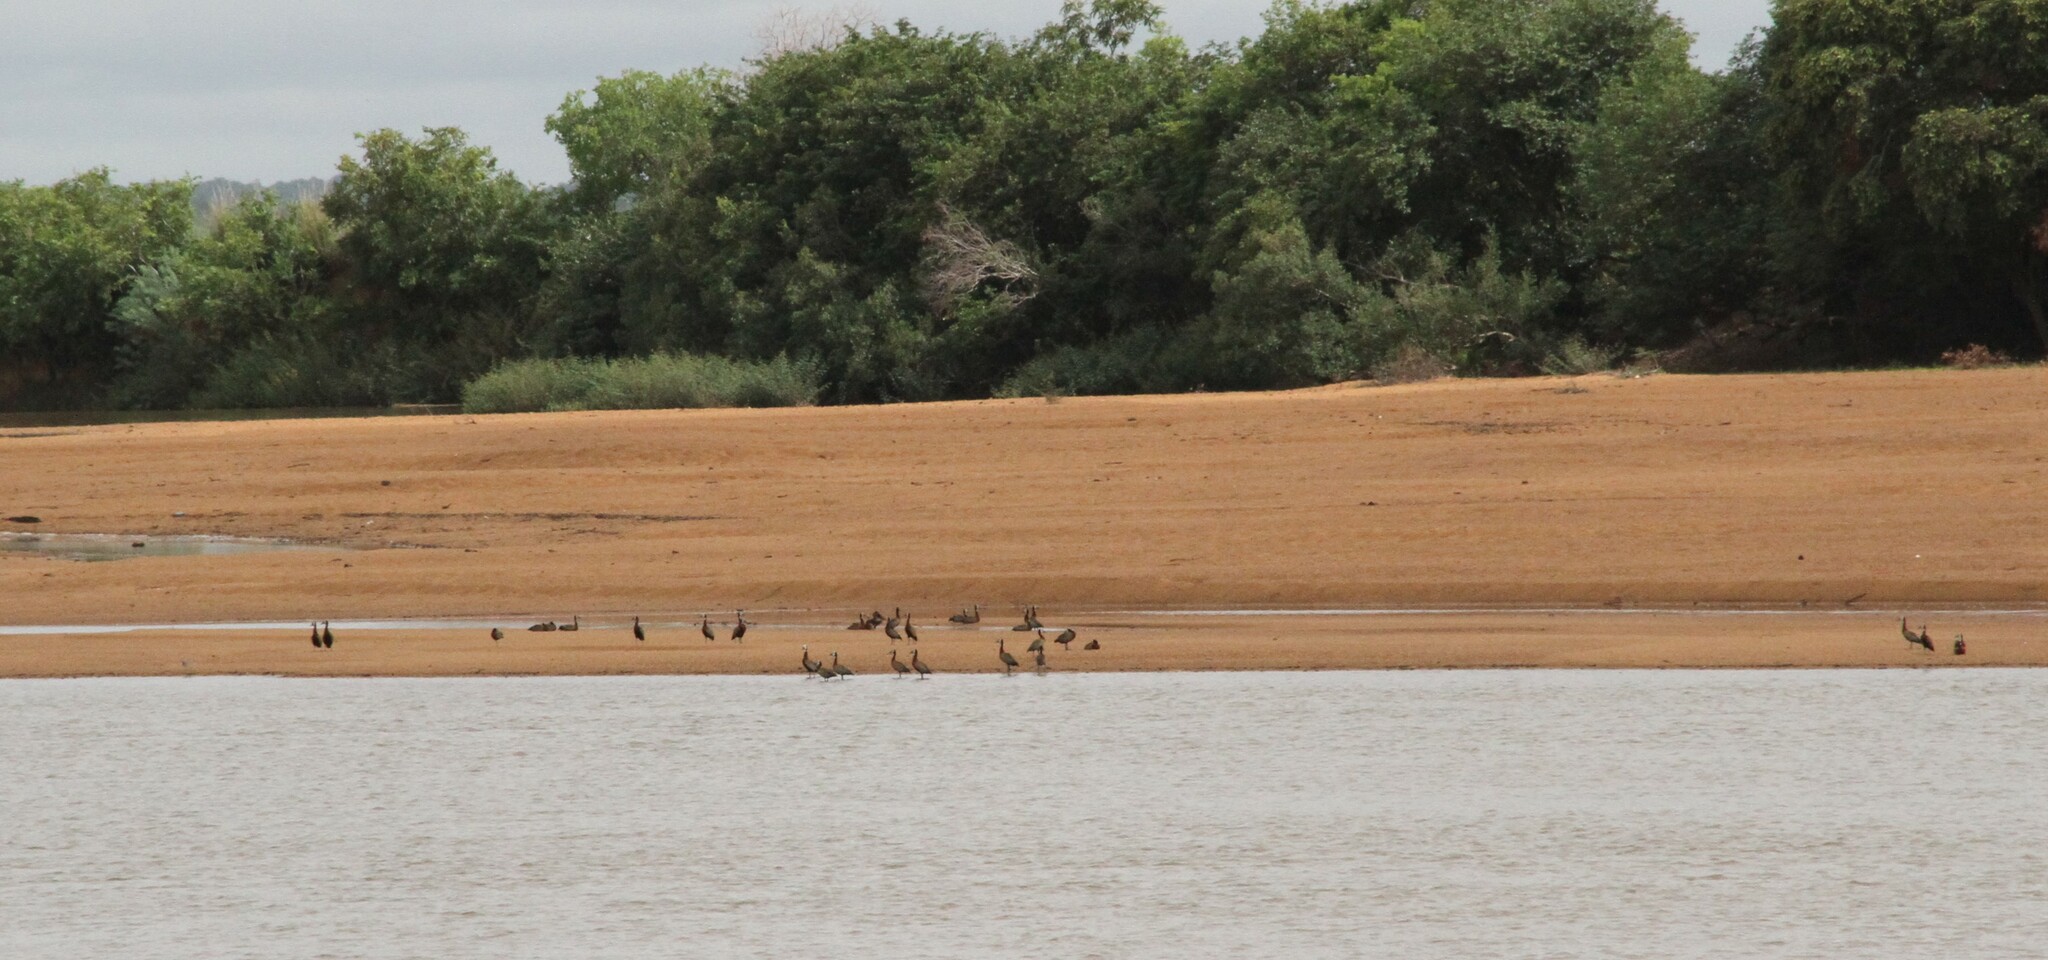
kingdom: Animalia
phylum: Chordata
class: Aves
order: Anseriformes
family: Anatidae
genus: Dendrocygna
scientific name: Dendrocygna viduata
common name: White-faced whistling duck
